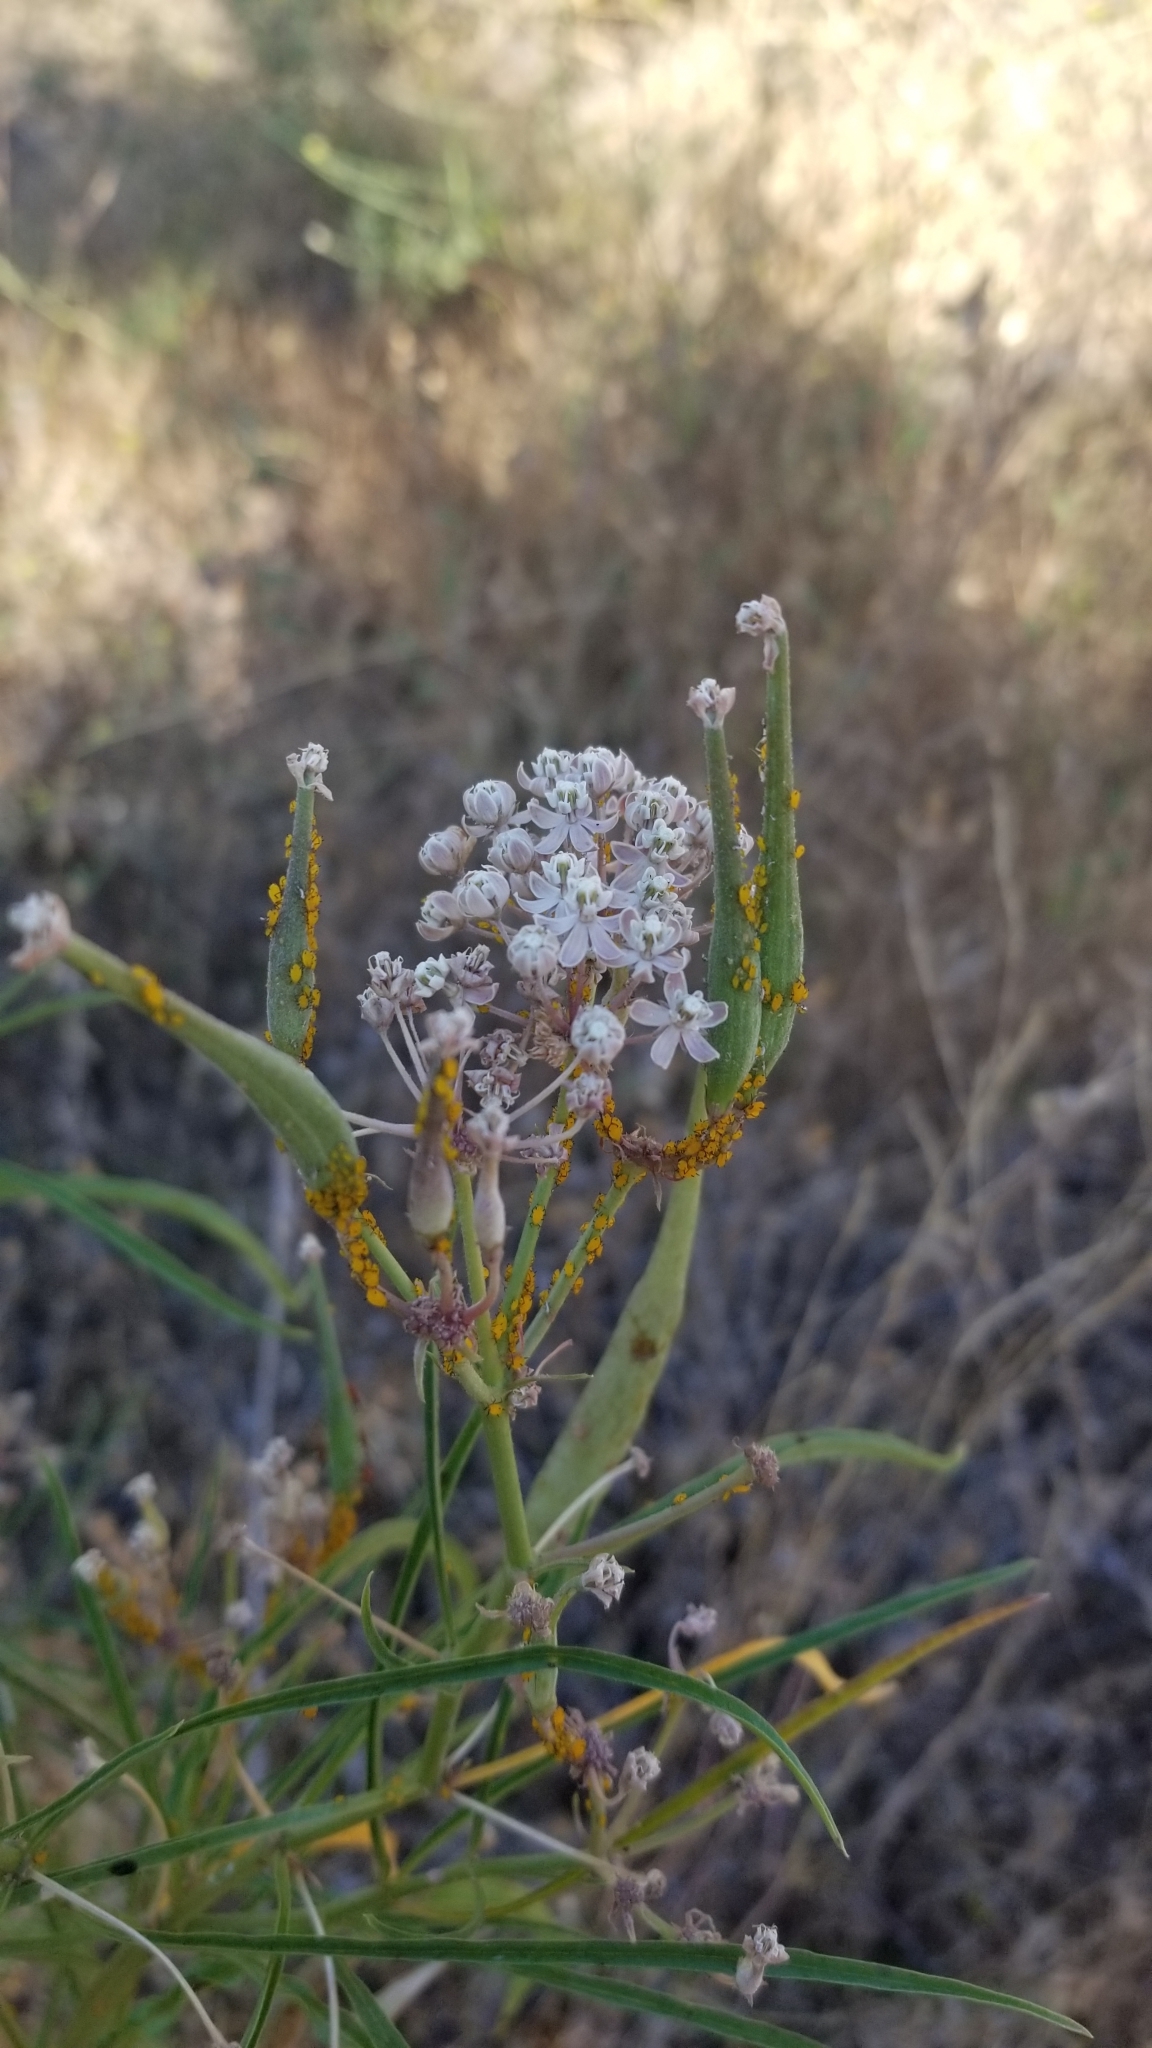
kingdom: Animalia
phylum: Arthropoda
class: Insecta
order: Hemiptera
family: Aphididae
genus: Aphis
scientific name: Aphis nerii
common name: Oleander aphid
